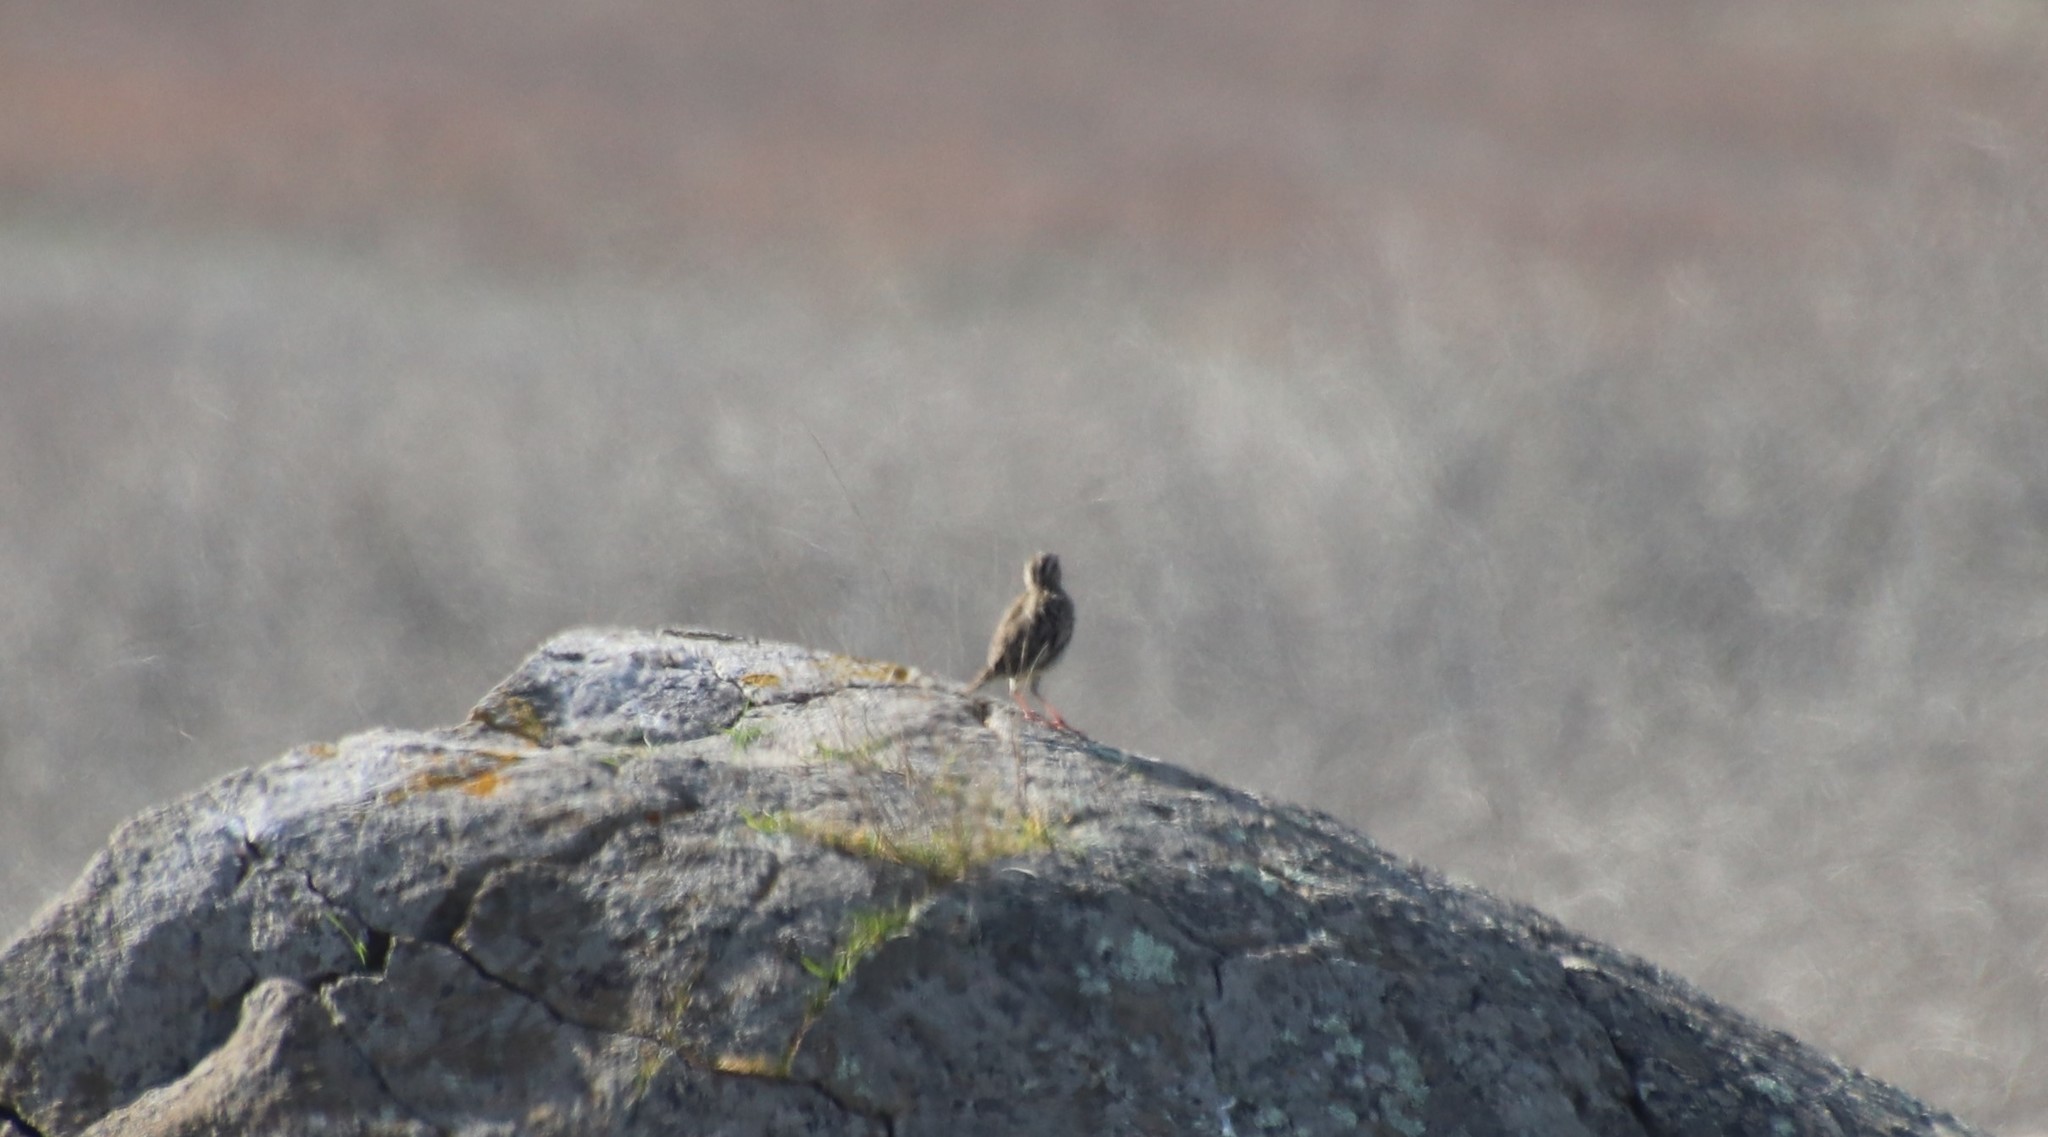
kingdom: Animalia
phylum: Chordata
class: Aves
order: Passeriformes
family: Icteridae
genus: Sturnella
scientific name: Sturnella neglecta
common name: Western meadowlark
